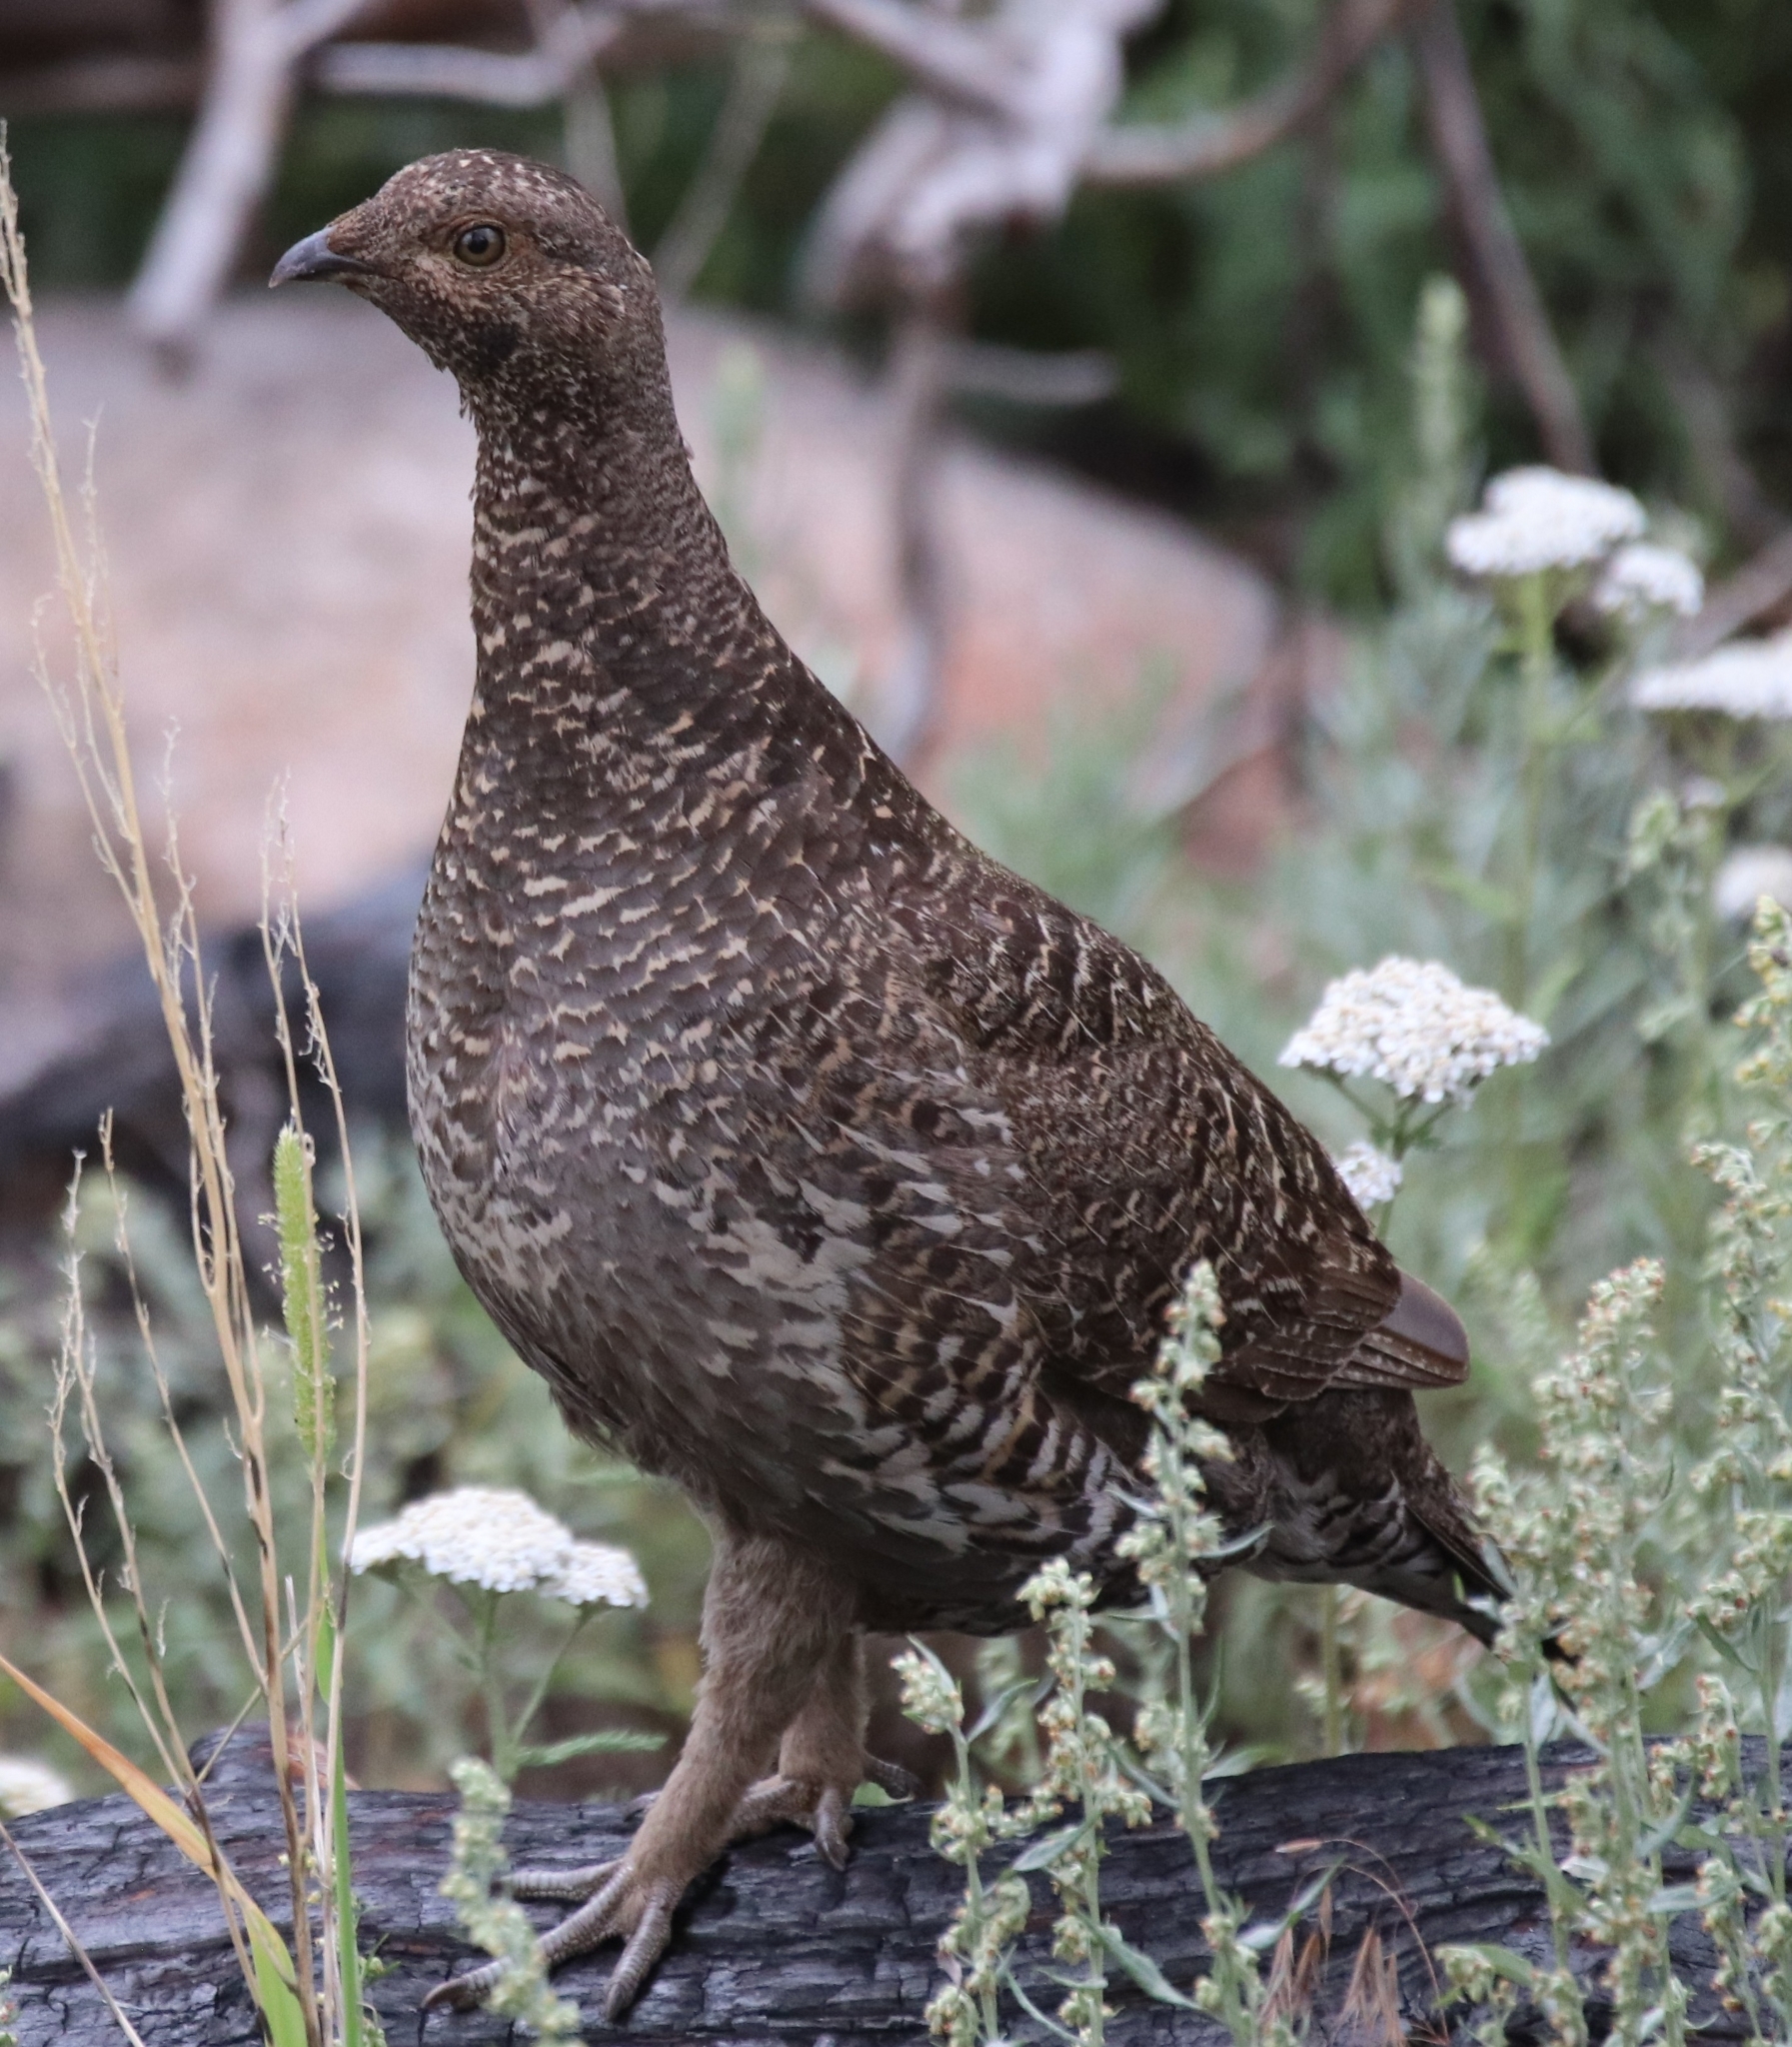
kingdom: Animalia
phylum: Chordata
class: Aves
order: Galliformes
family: Phasianidae
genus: Dendragapus
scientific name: Dendragapus obscurus
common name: Dusky grouse
